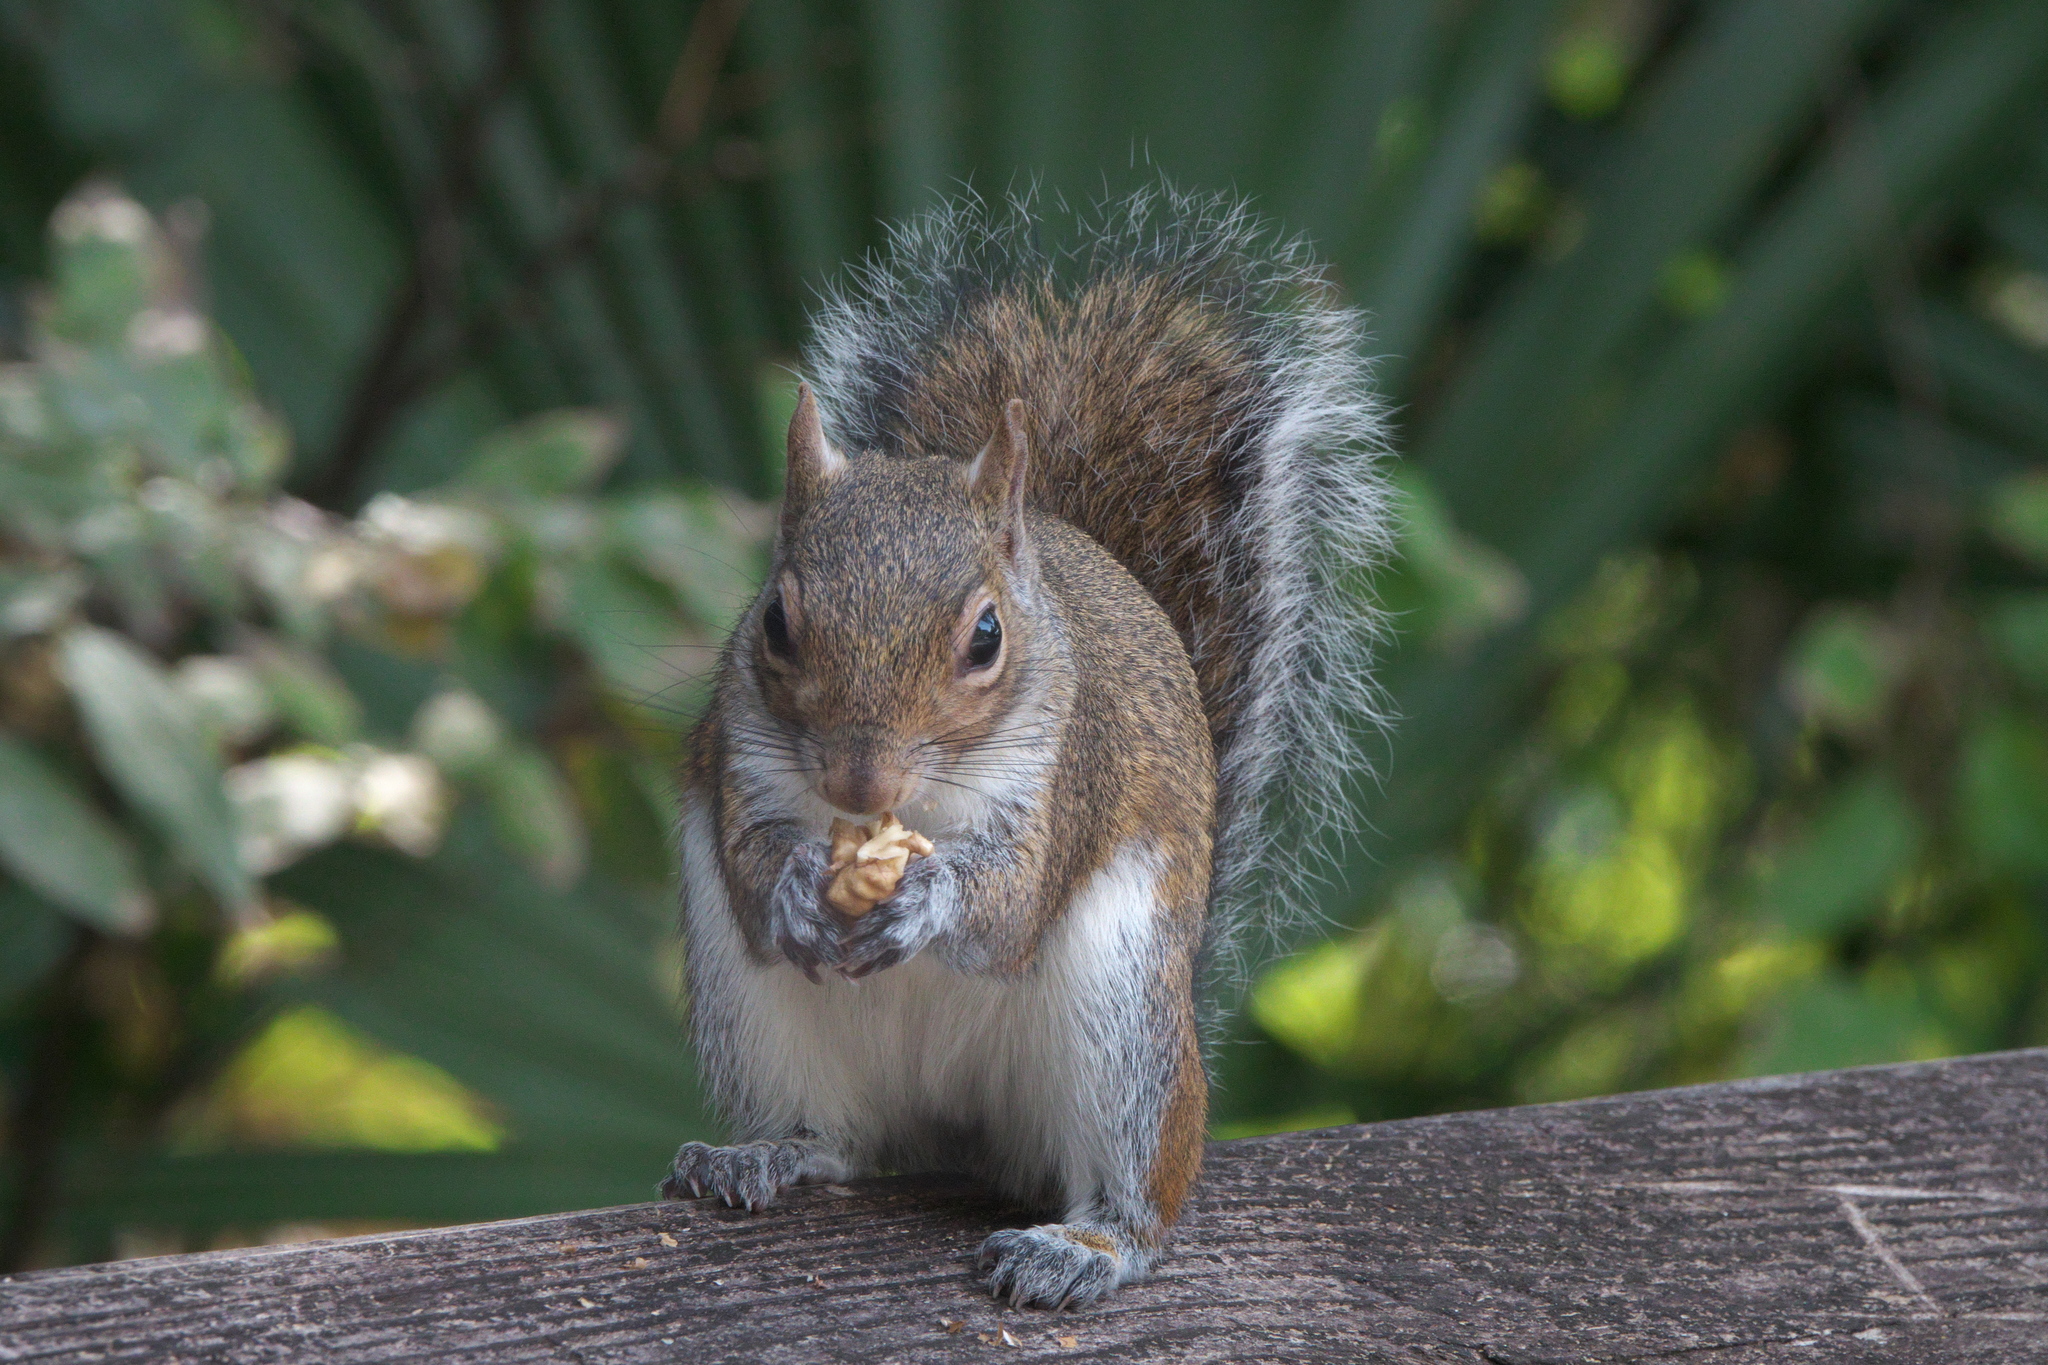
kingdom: Animalia
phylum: Chordata
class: Mammalia
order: Rodentia
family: Sciuridae
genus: Sciurus
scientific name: Sciurus carolinensis
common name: Eastern gray squirrel
